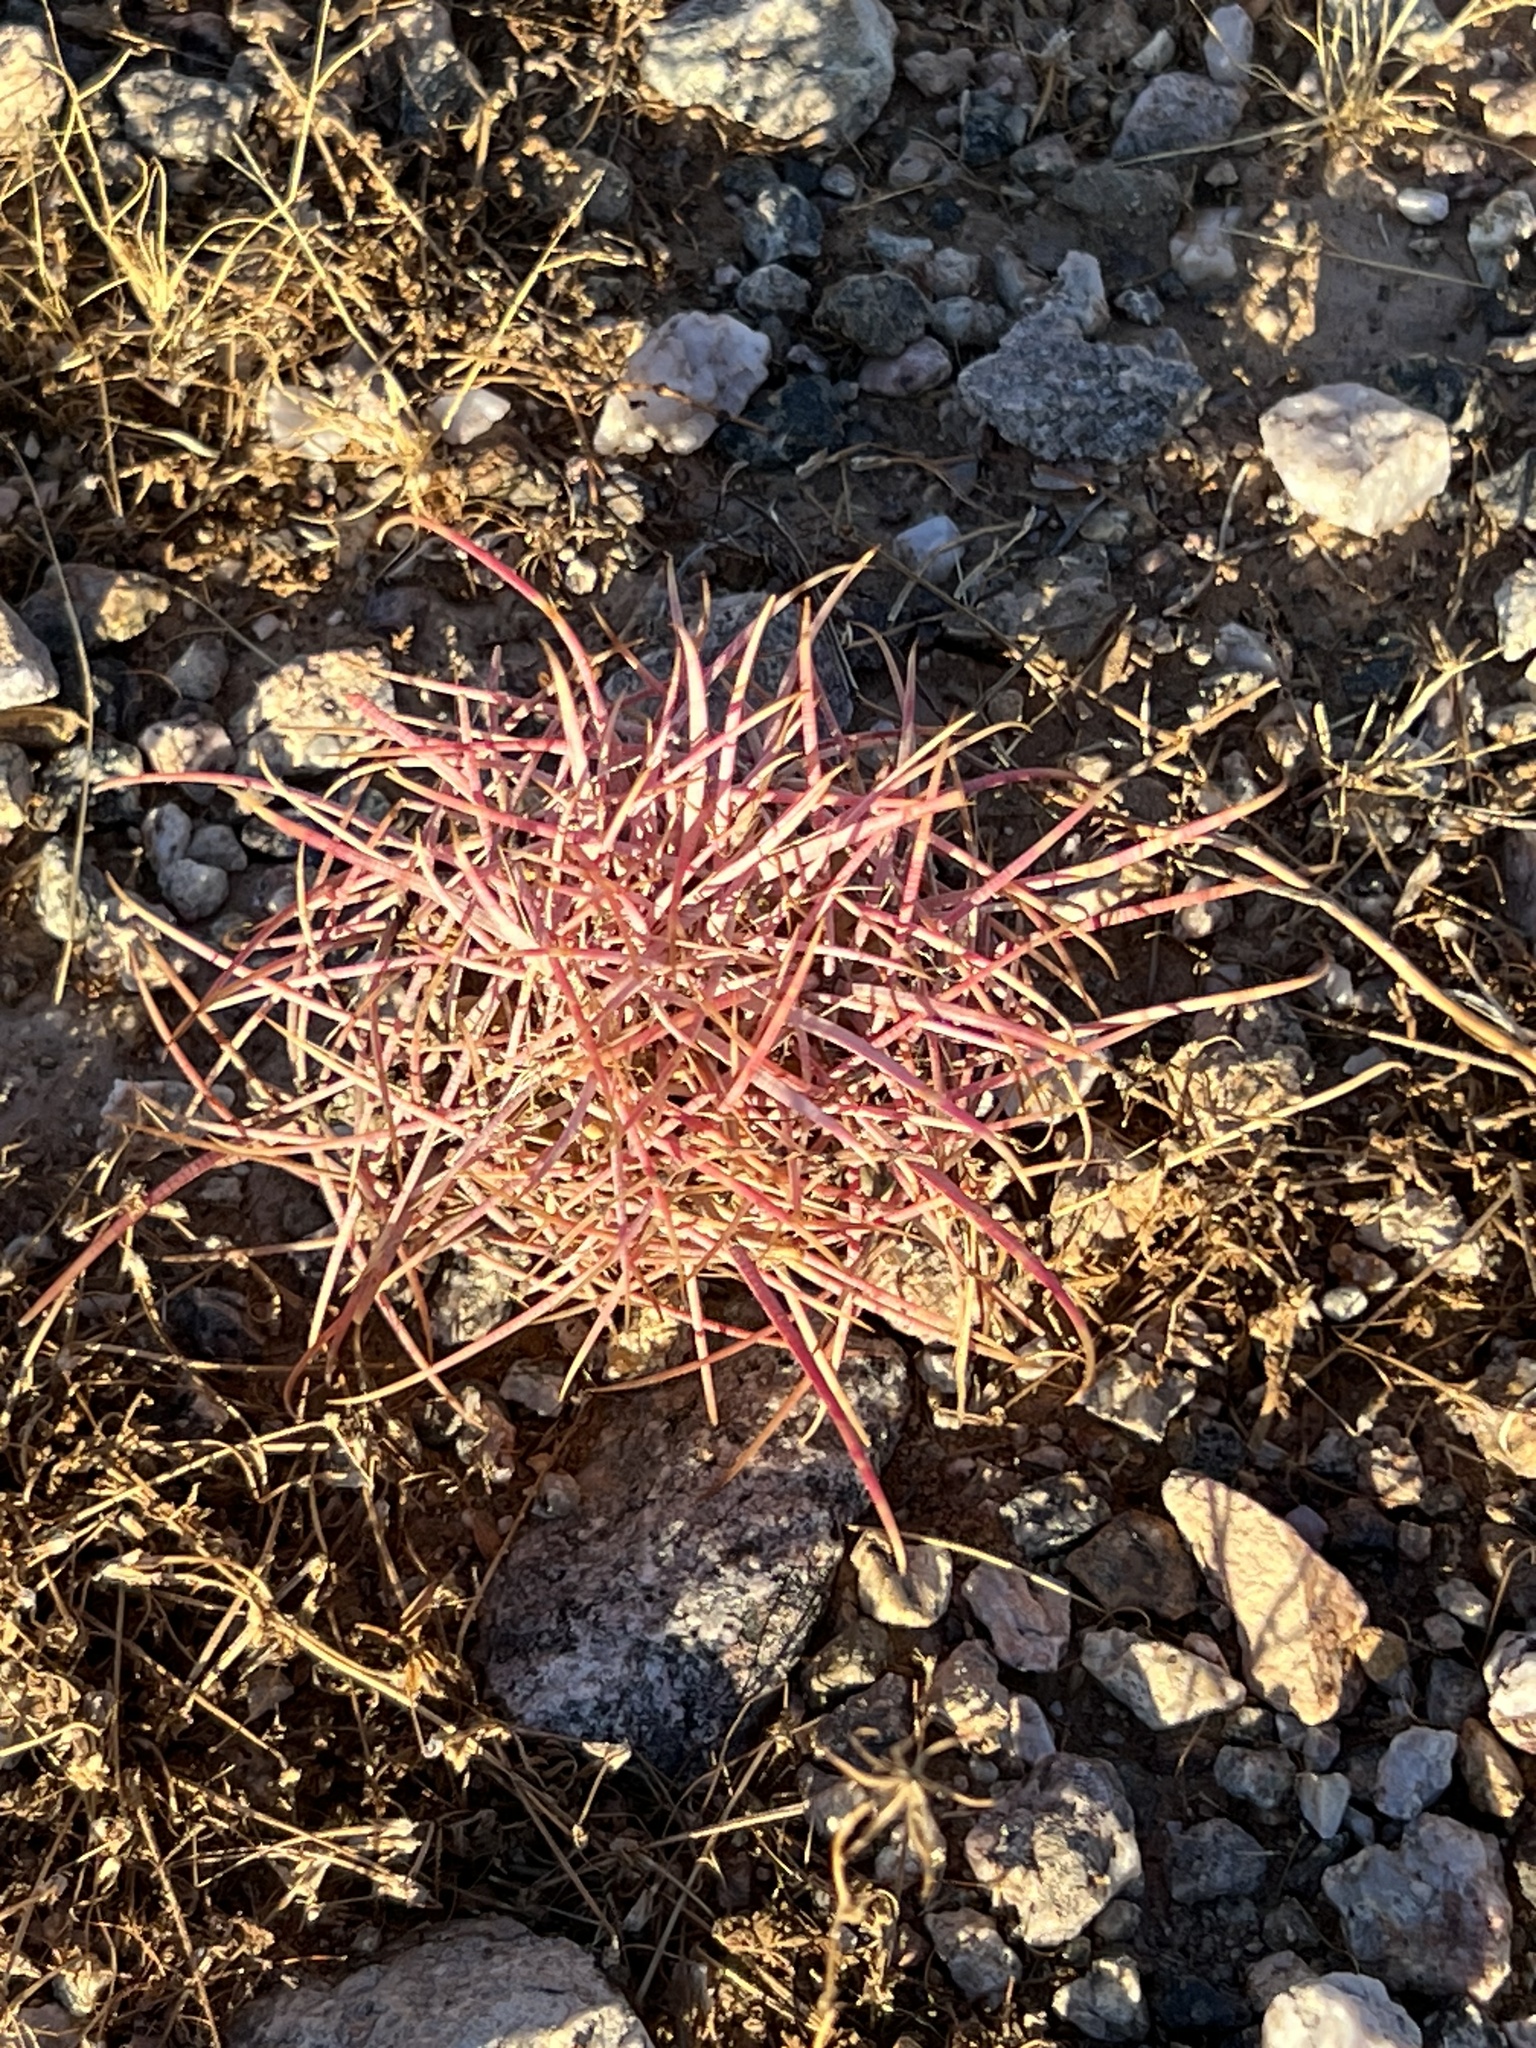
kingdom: Plantae
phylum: Tracheophyta
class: Magnoliopsida
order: Caryophyllales
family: Cactaceae
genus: Ferocactus
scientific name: Ferocactus cylindraceus
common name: California barrel cactus
